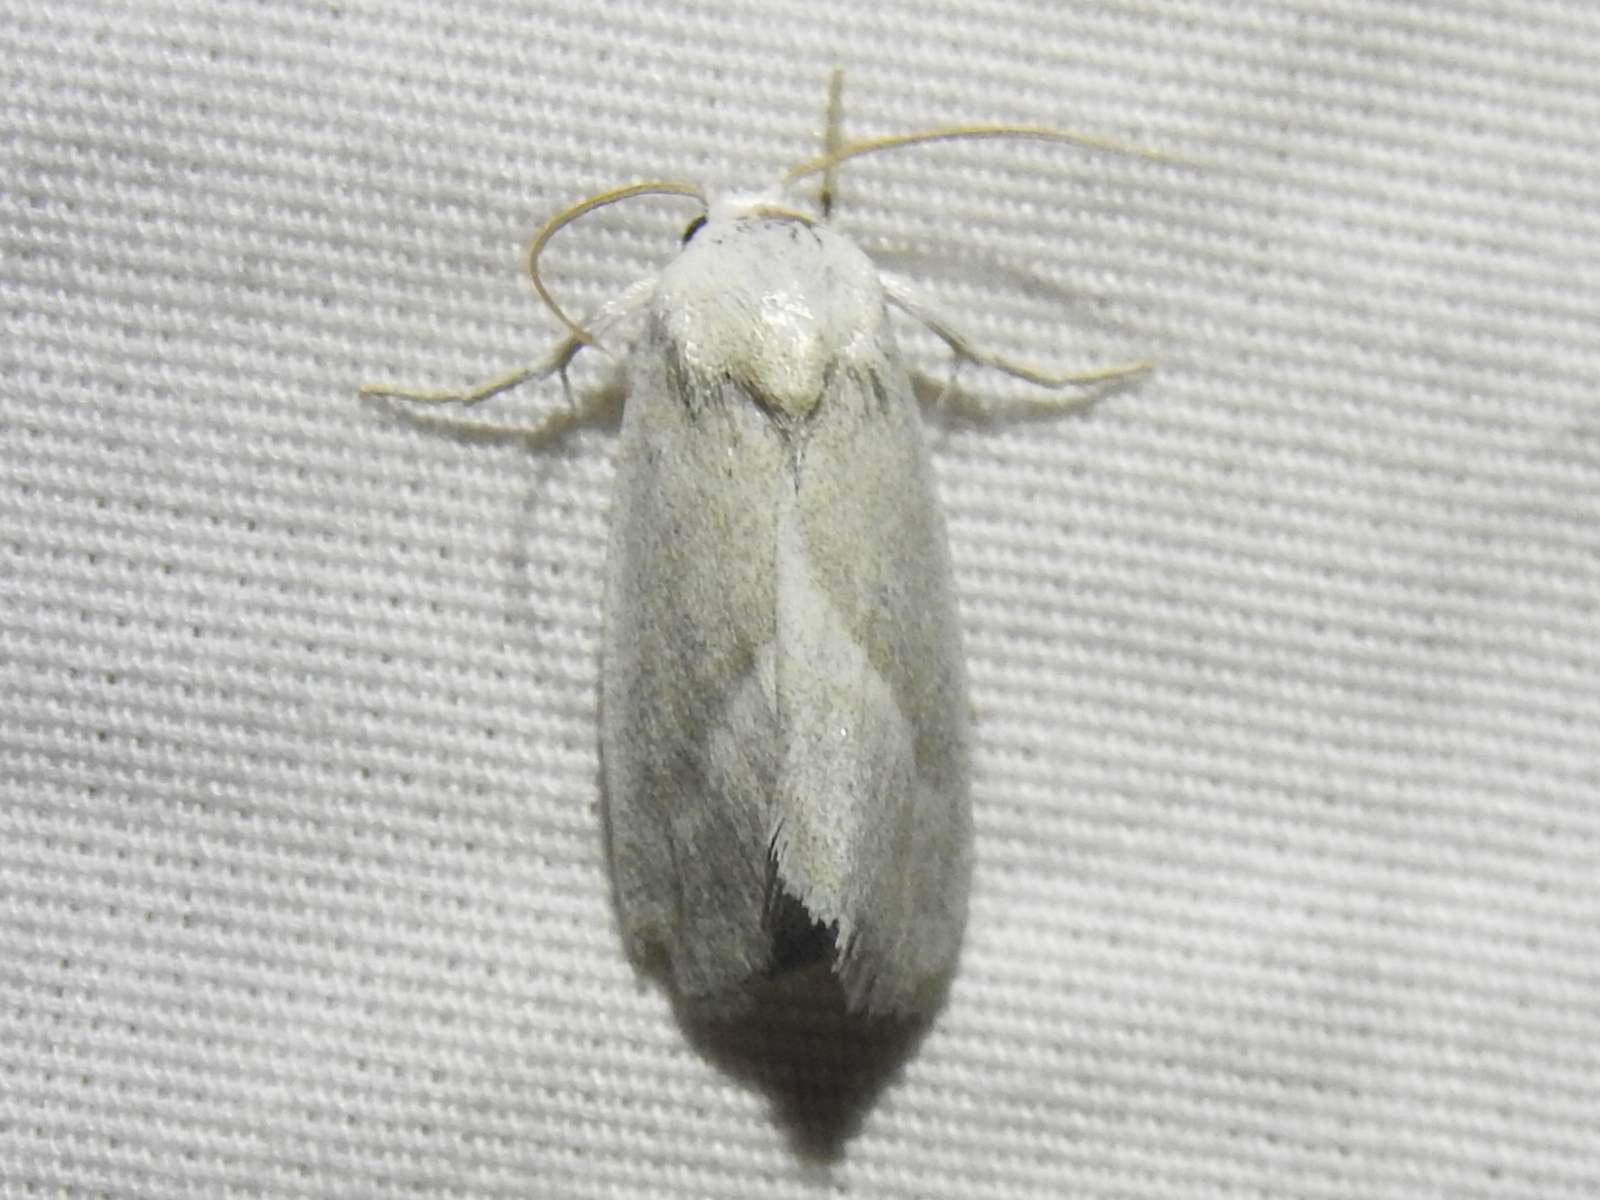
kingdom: Animalia
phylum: Arthropoda
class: Insecta
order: Lepidoptera
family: Noctuidae
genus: Leucocnemis
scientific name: Leucocnemis nivalis
